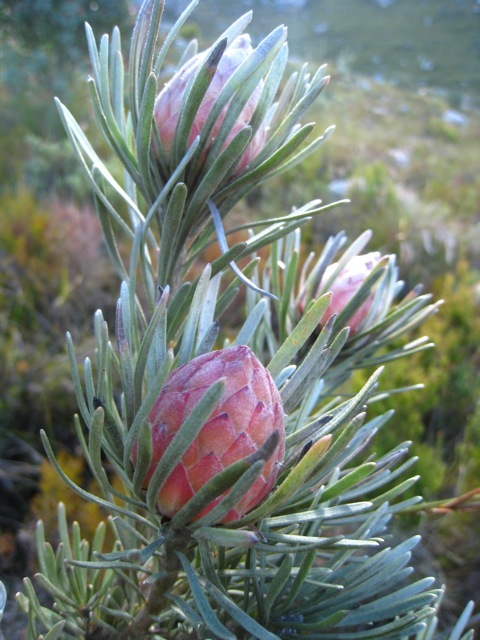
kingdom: Plantae
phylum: Tracheophyta
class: Magnoliopsida
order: Proteales
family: Proteaceae
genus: Leucadendron
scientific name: Leucadendron album
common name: Linear-leaf conebush
